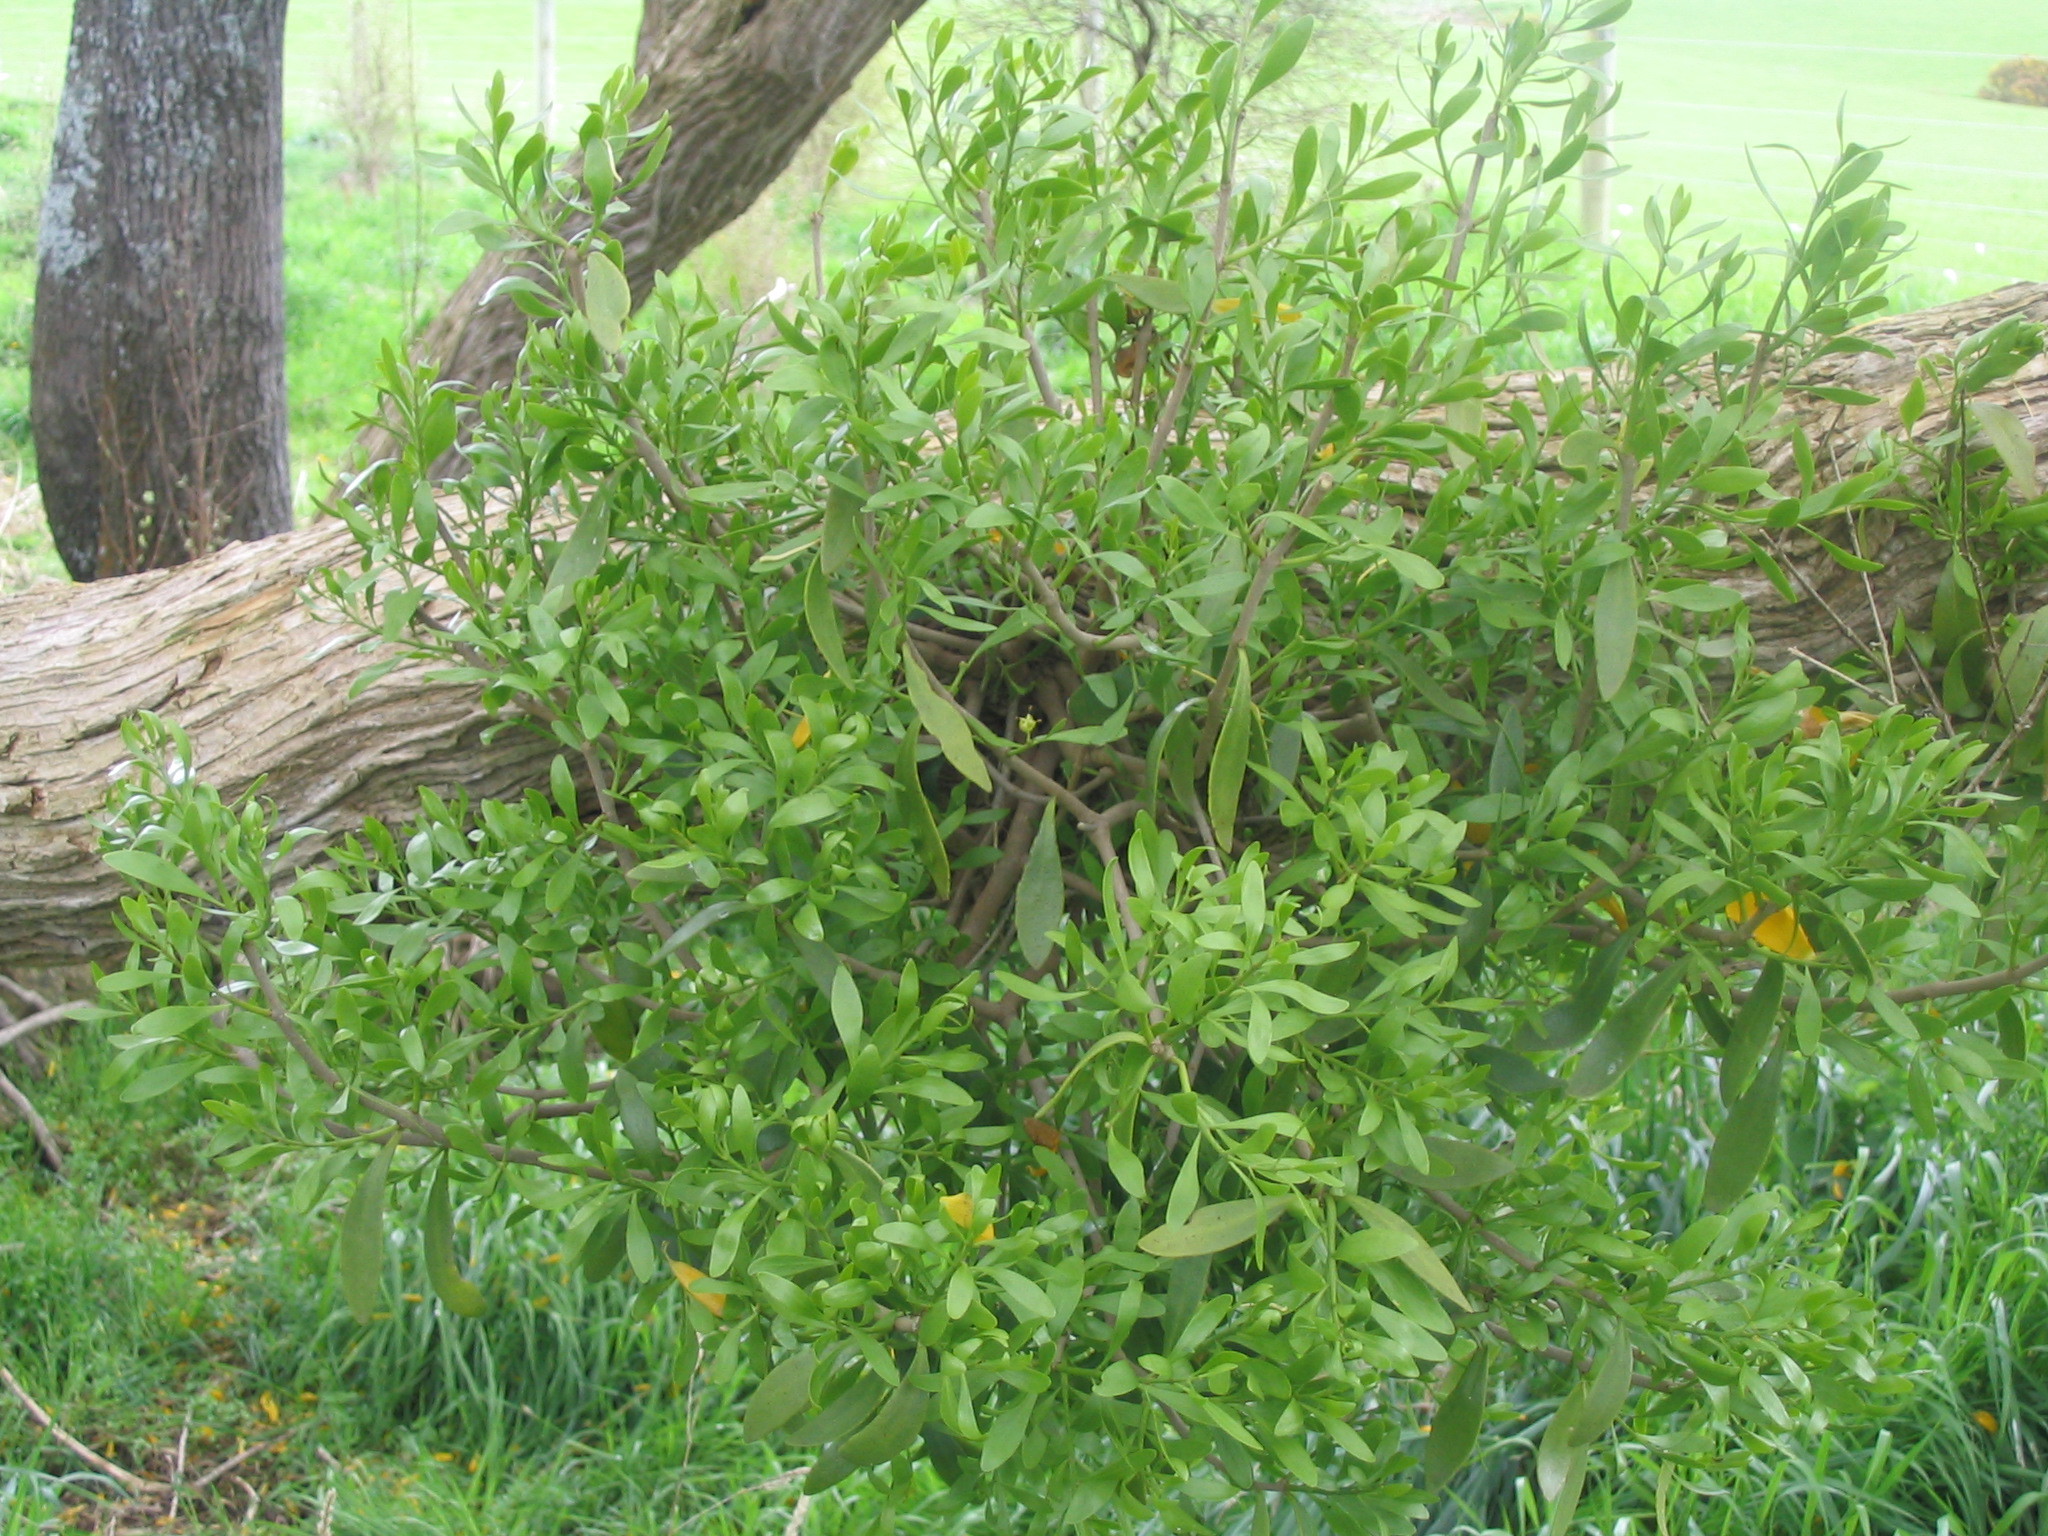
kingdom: Plantae
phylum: Tracheophyta
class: Magnoliopsida
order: Santalales
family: Loranthaceae
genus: Tupeia
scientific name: Tupeia antarctica
